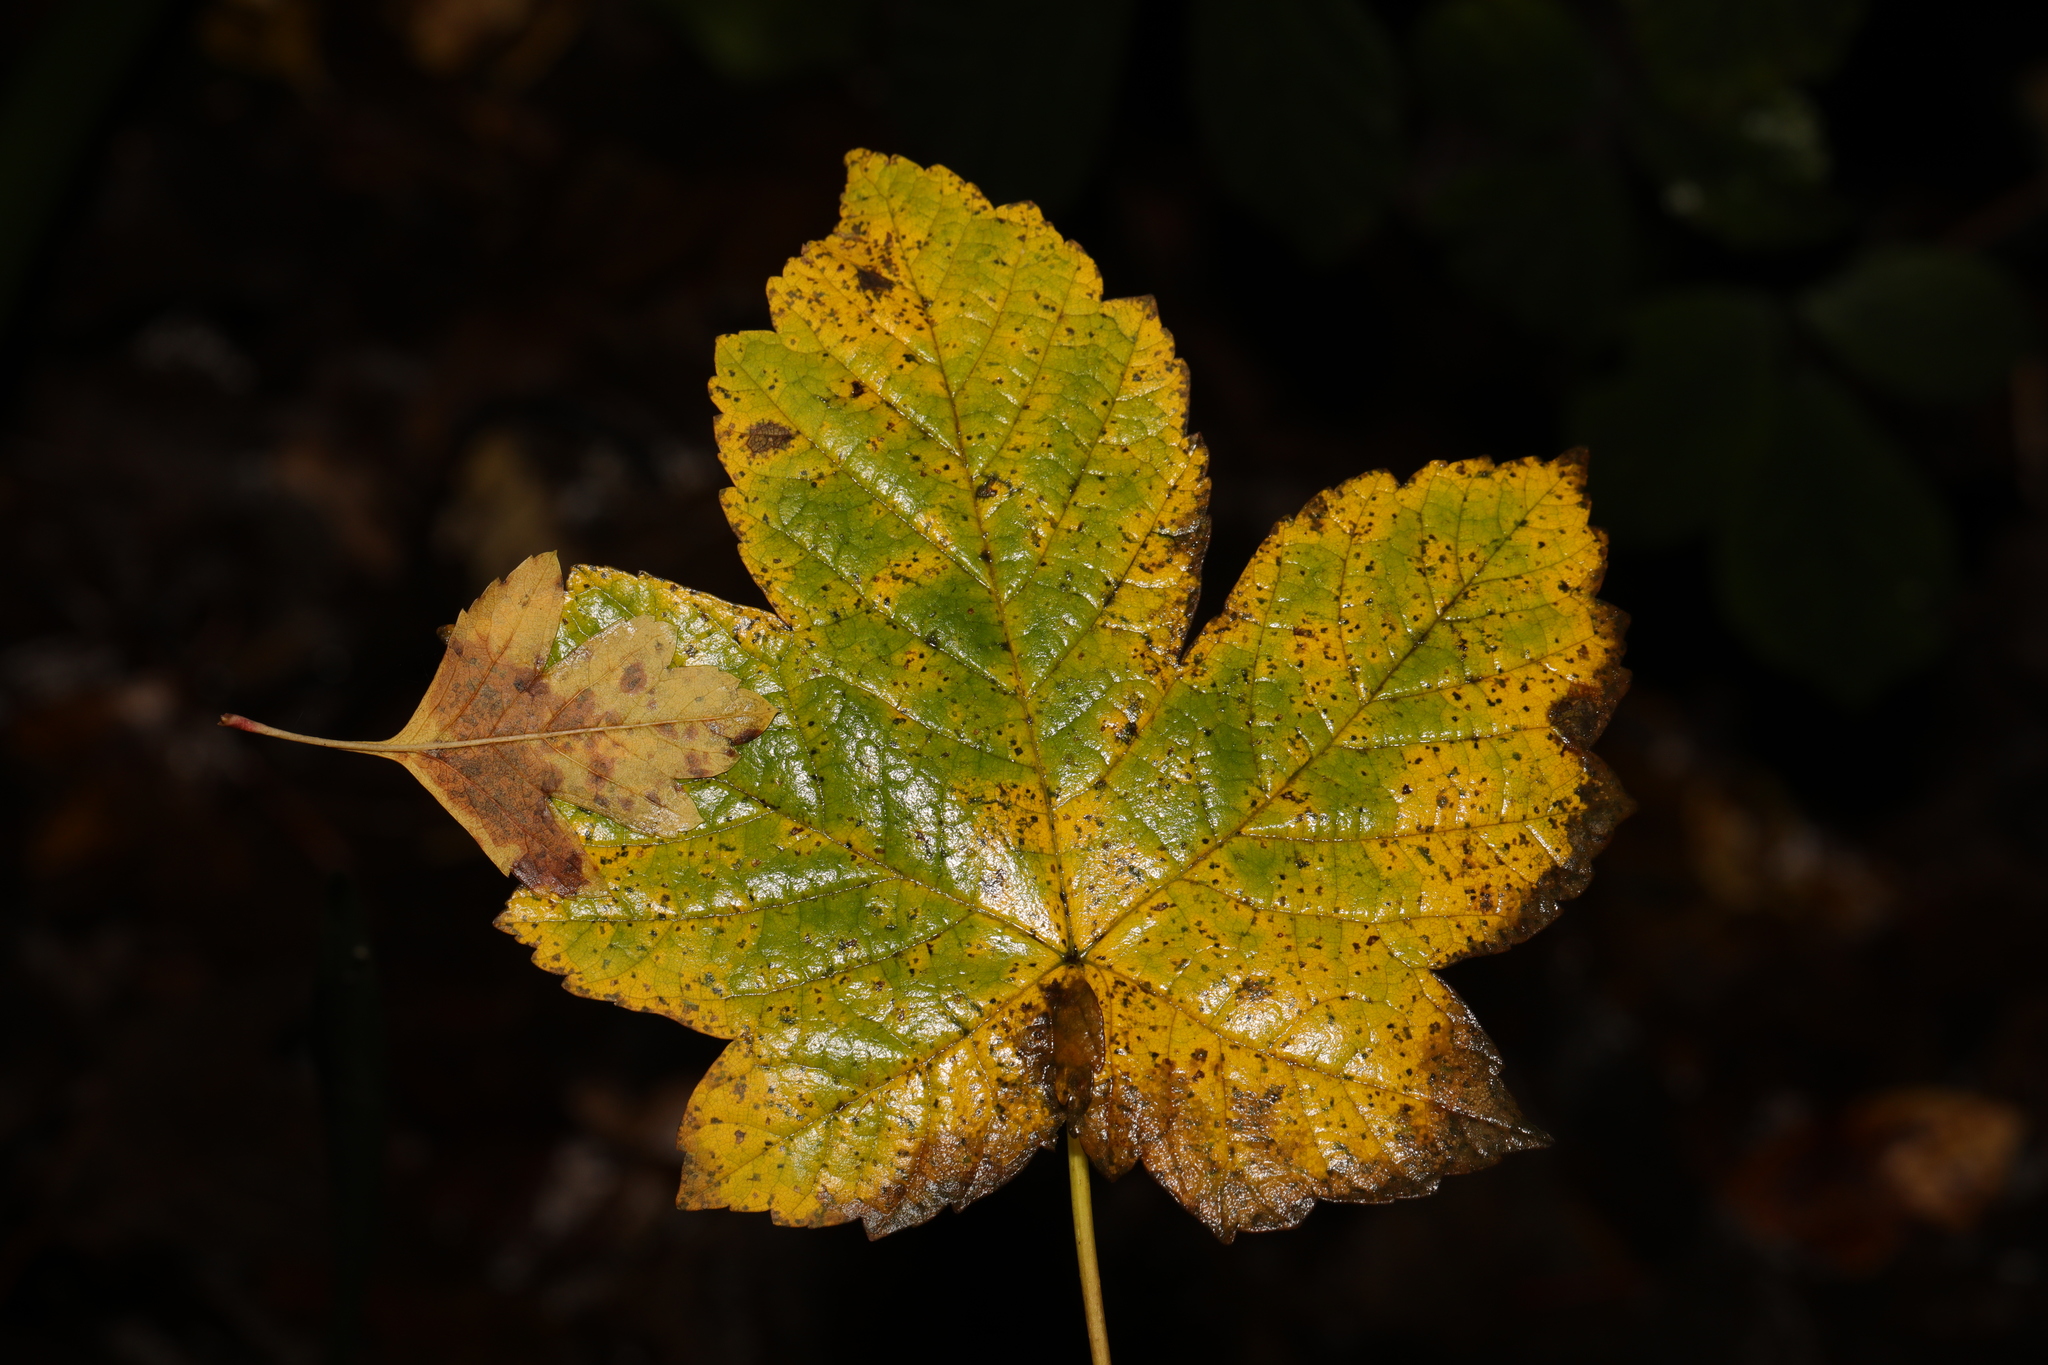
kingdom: Plantae
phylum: Tracheophyta
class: Magnoliopsida
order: Sapindales
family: Sapindaceae
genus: Acer
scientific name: Acer pseudoplatanus
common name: Sycamore
